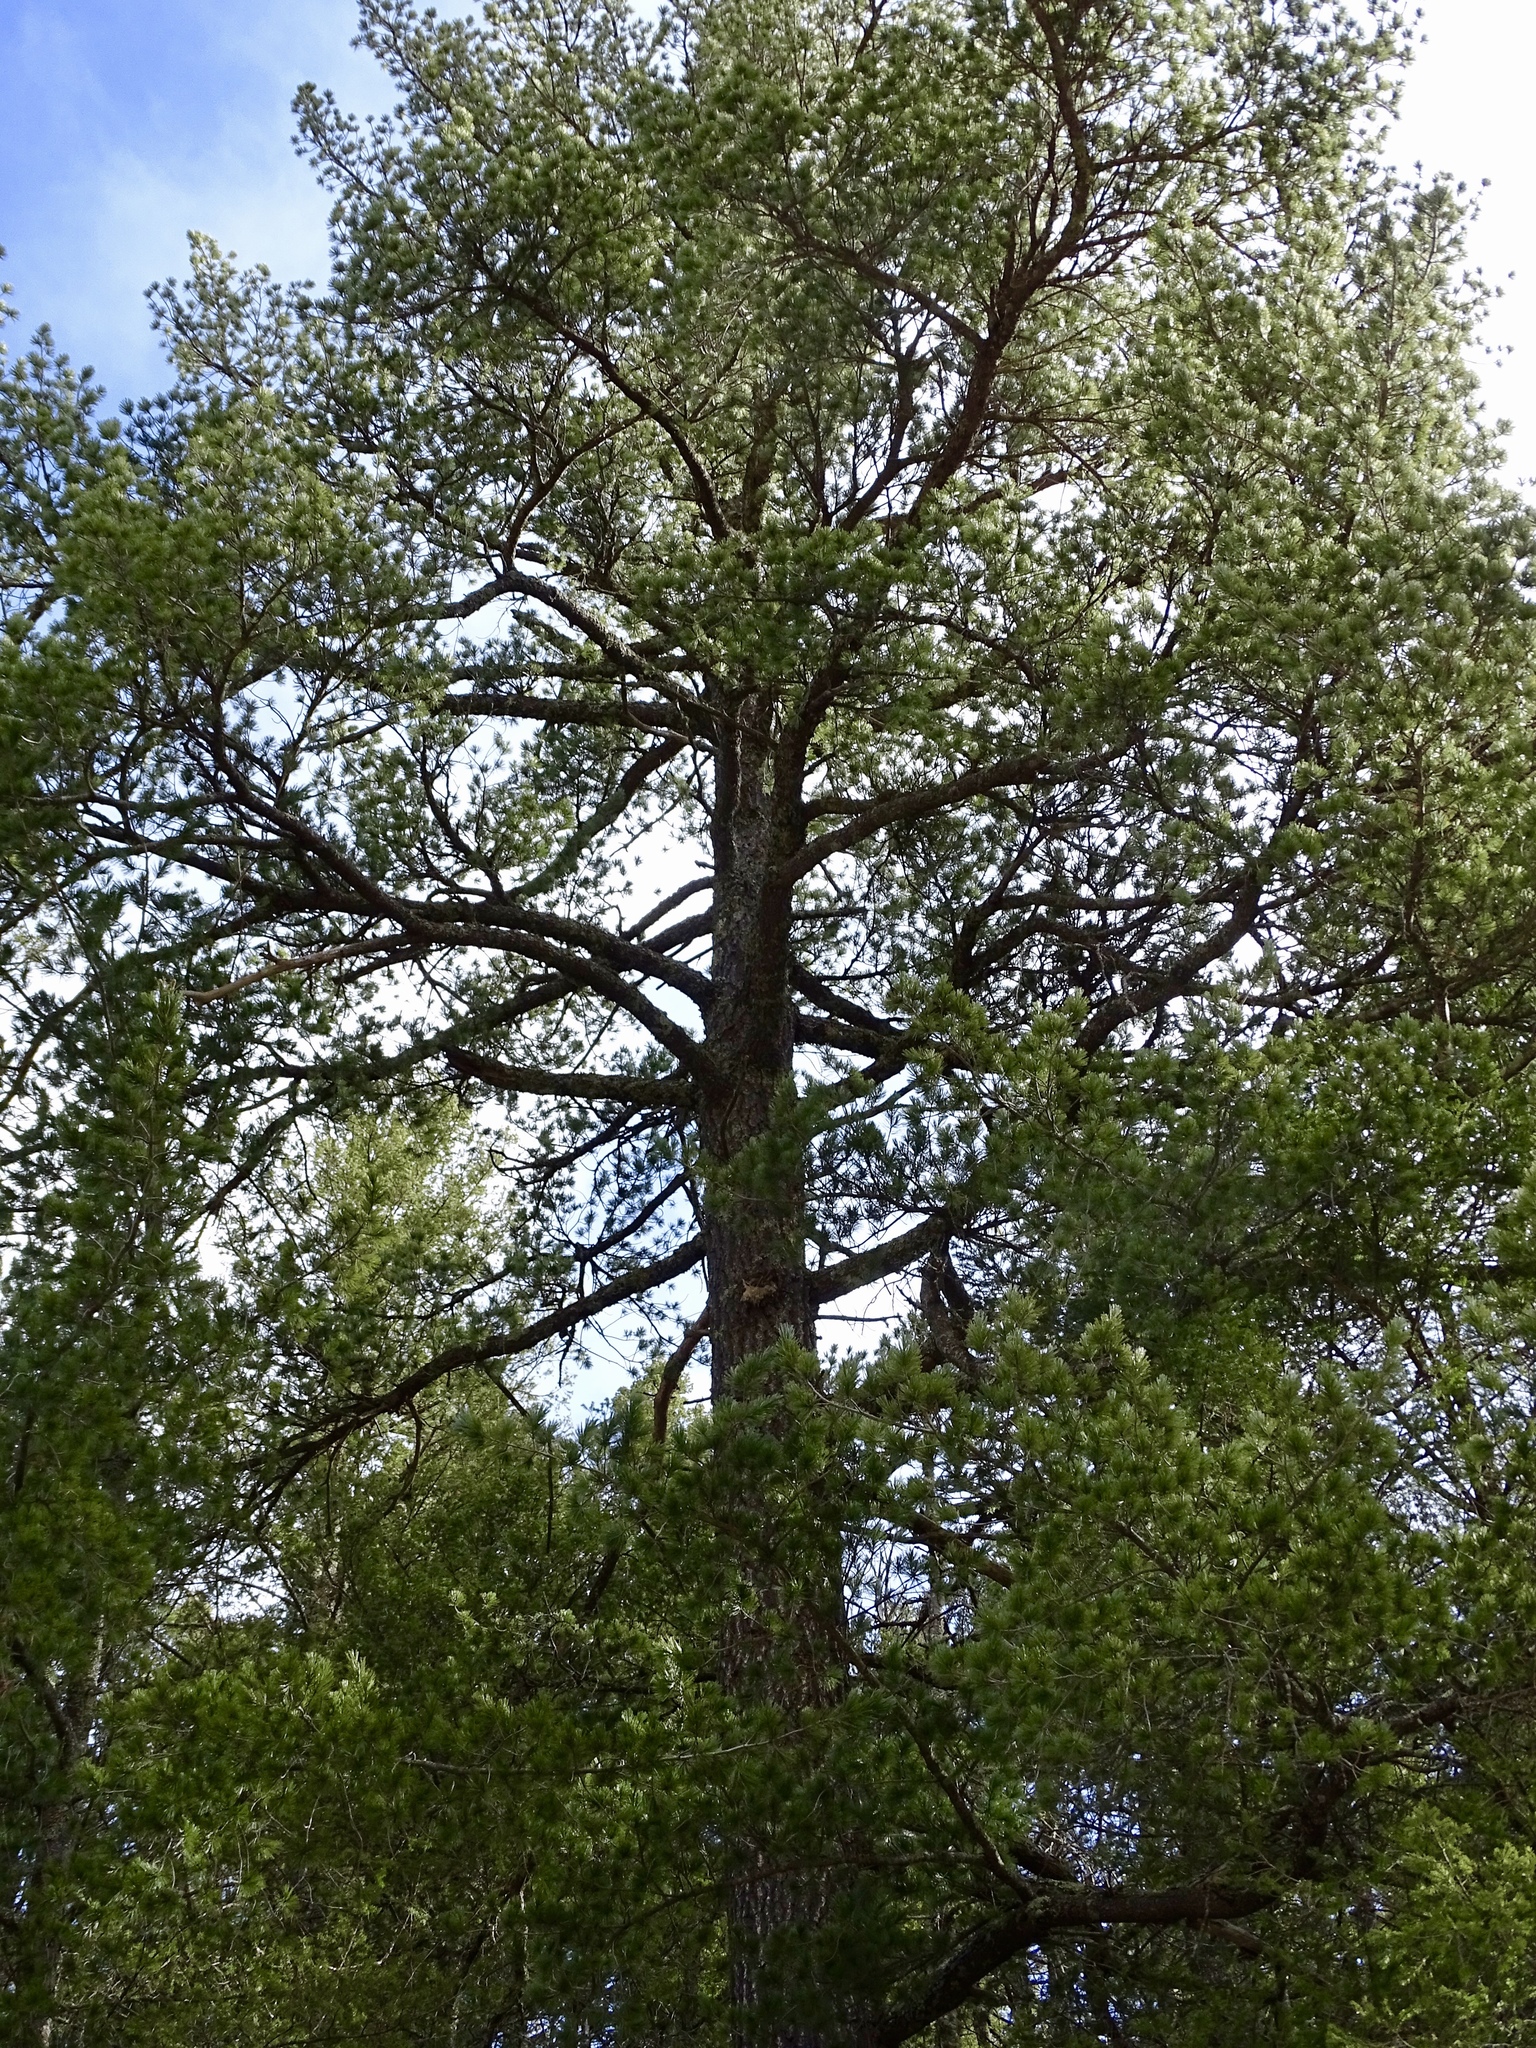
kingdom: Plantae
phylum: Tracheophyta
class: Pinopsida
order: Pinales
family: Pinaceae
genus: Pinus
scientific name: Pinus strobiformis
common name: Southwestern white pine
